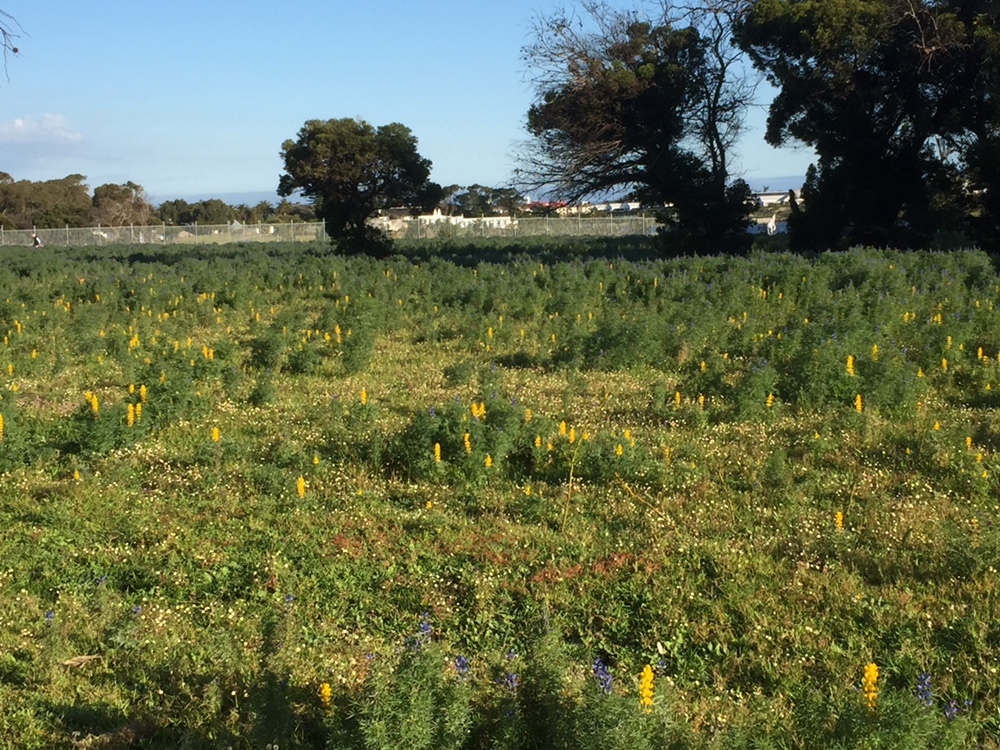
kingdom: Plantae
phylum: Tracheophyta
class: Magnoliopsida
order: Fabales
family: Fabaceae
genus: Lupinus
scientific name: Lupinus luteus
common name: European yellow lupine
